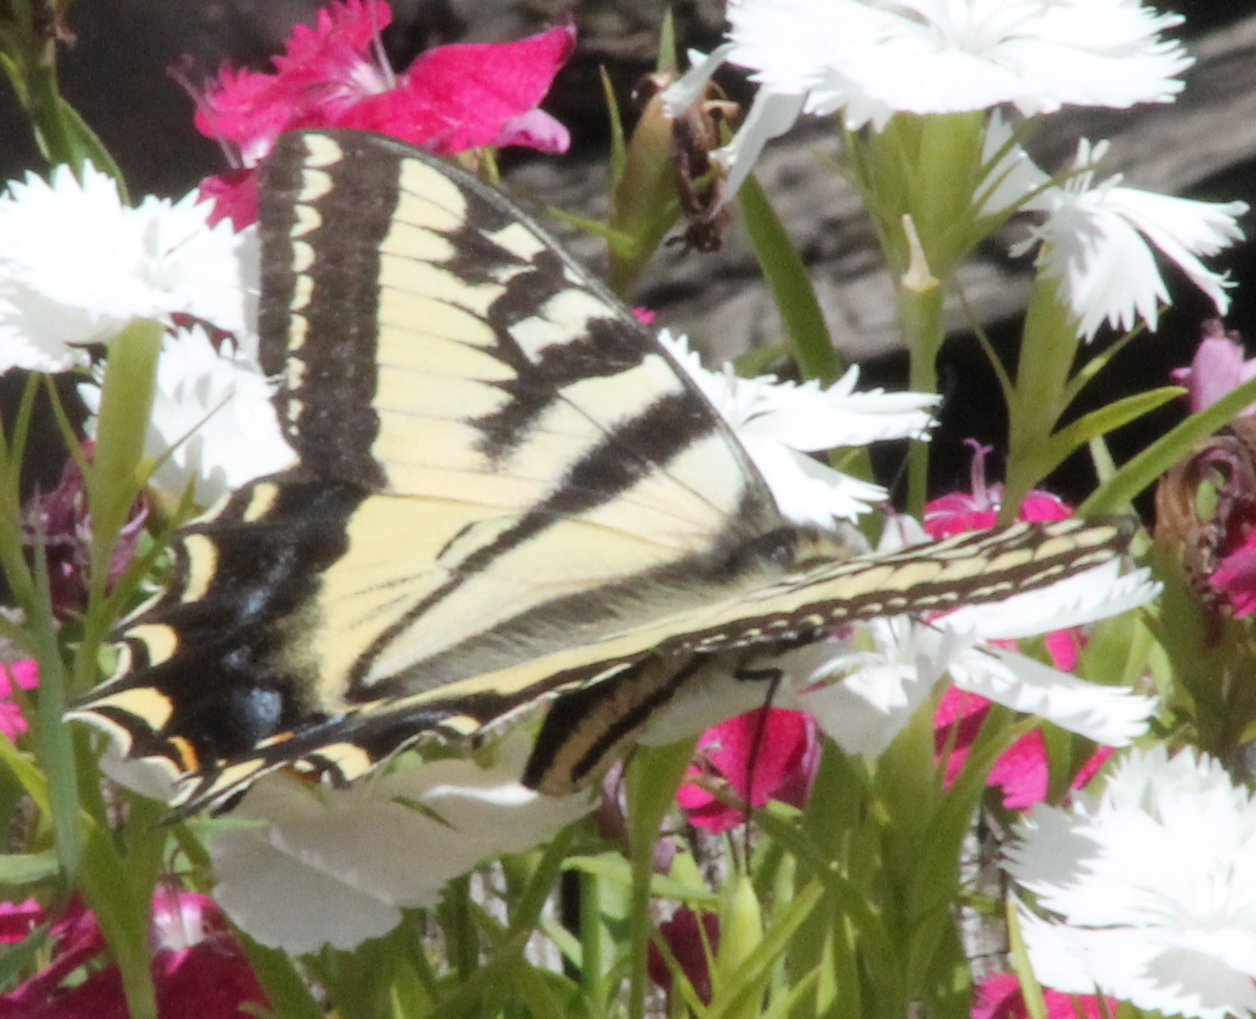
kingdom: Animalia
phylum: Arthropoda
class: Insecta
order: Lepidoptera
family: Papilionidae
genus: Papilio
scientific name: Papilio rutulus
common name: Western tiger swallowtail
